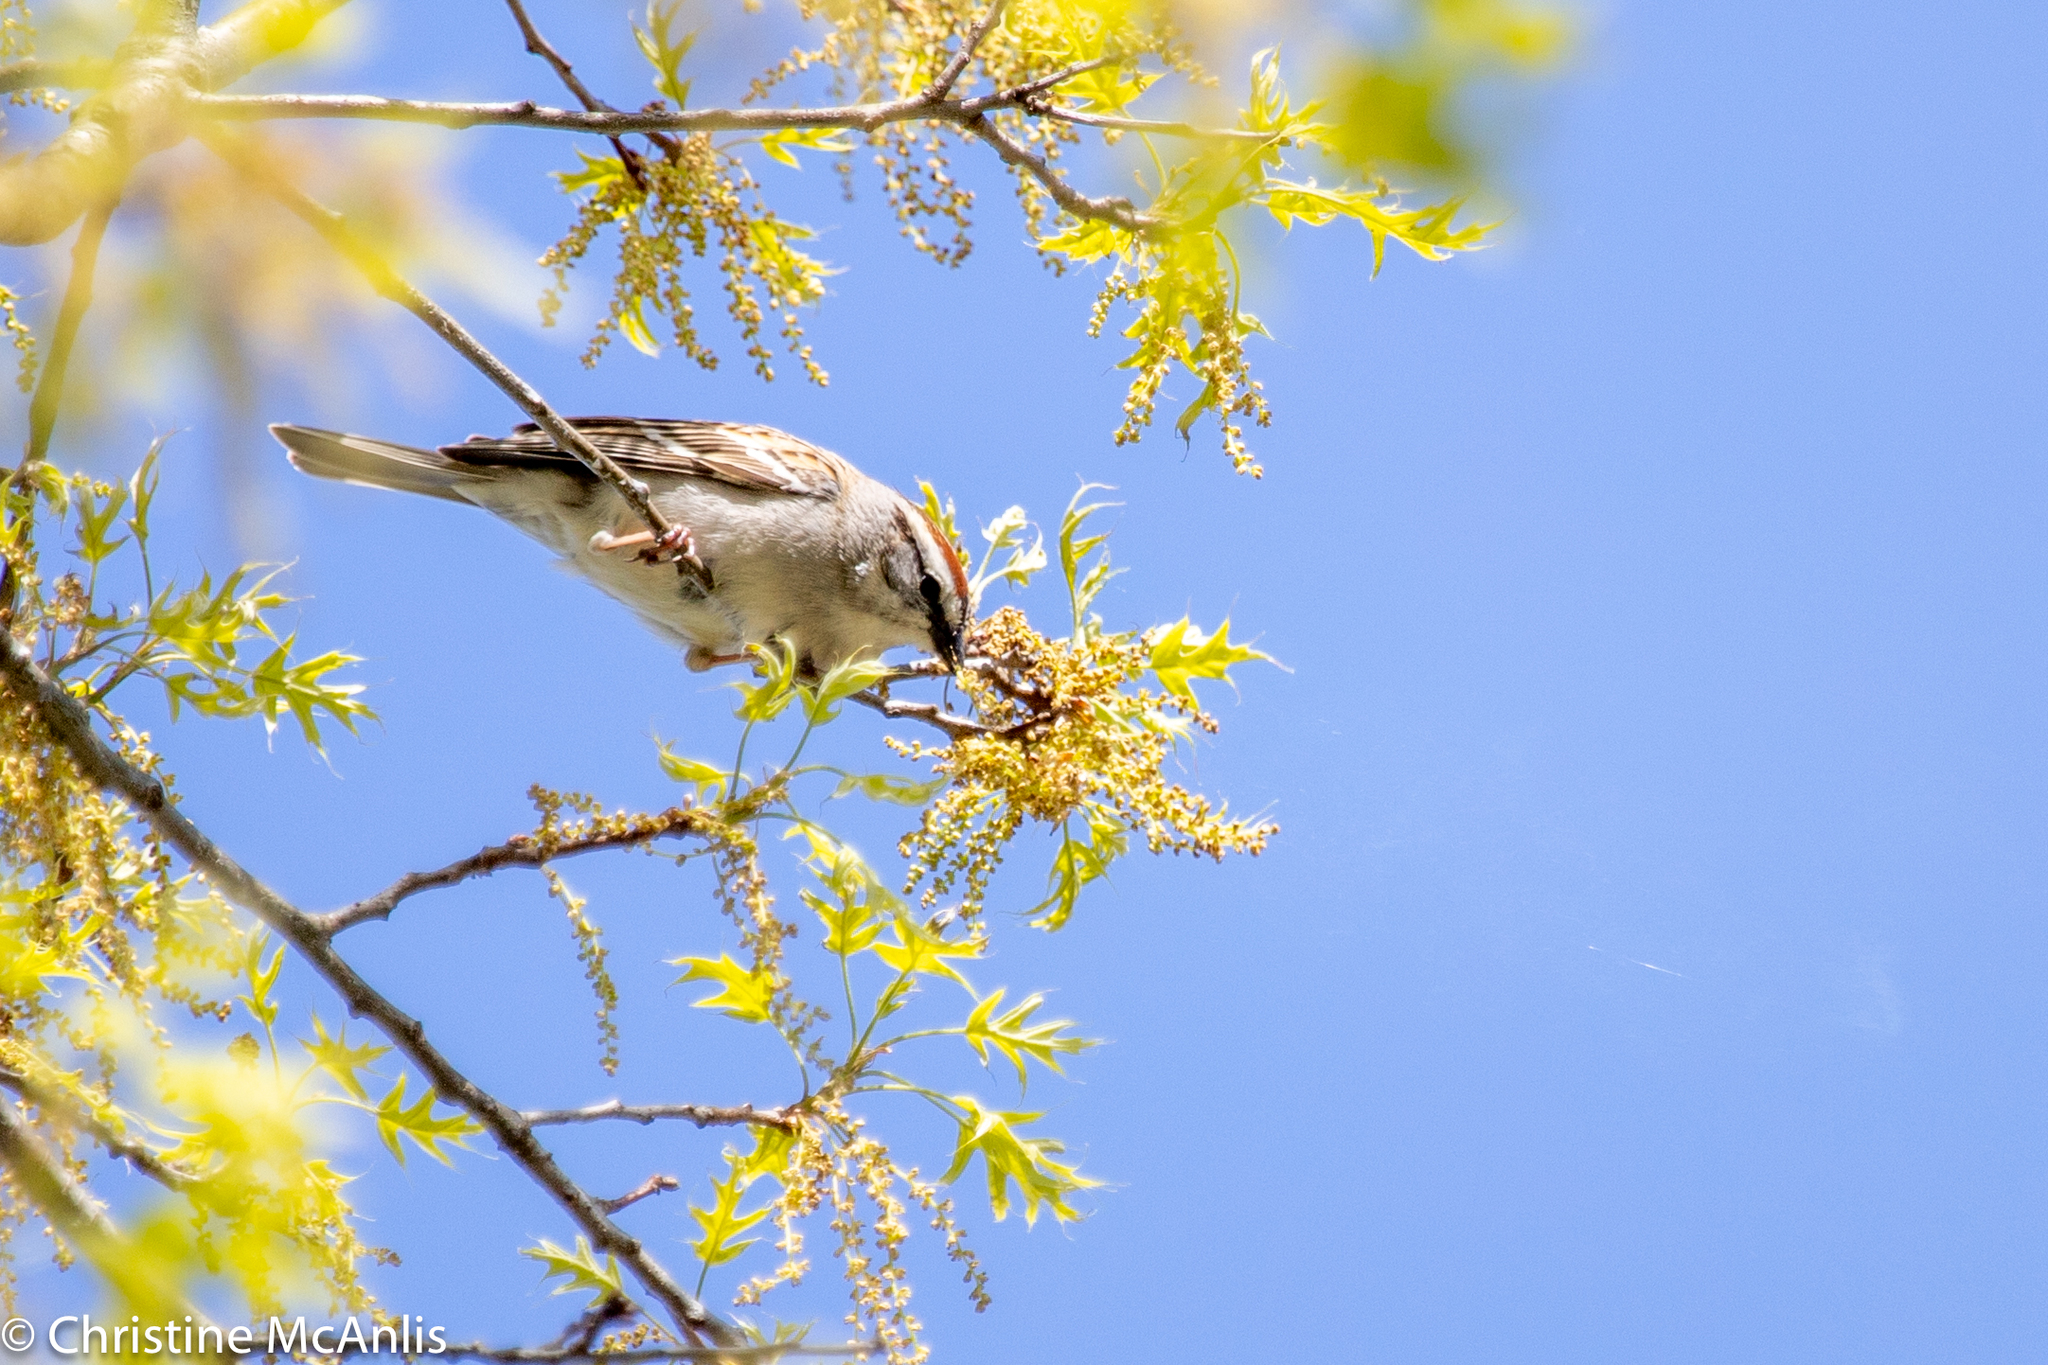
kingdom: Animalia
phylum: Chordata
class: Aves
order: Passeriformes
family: Passerellidae
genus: Spizella
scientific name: Spizella passerina
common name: Chipping sparrow
